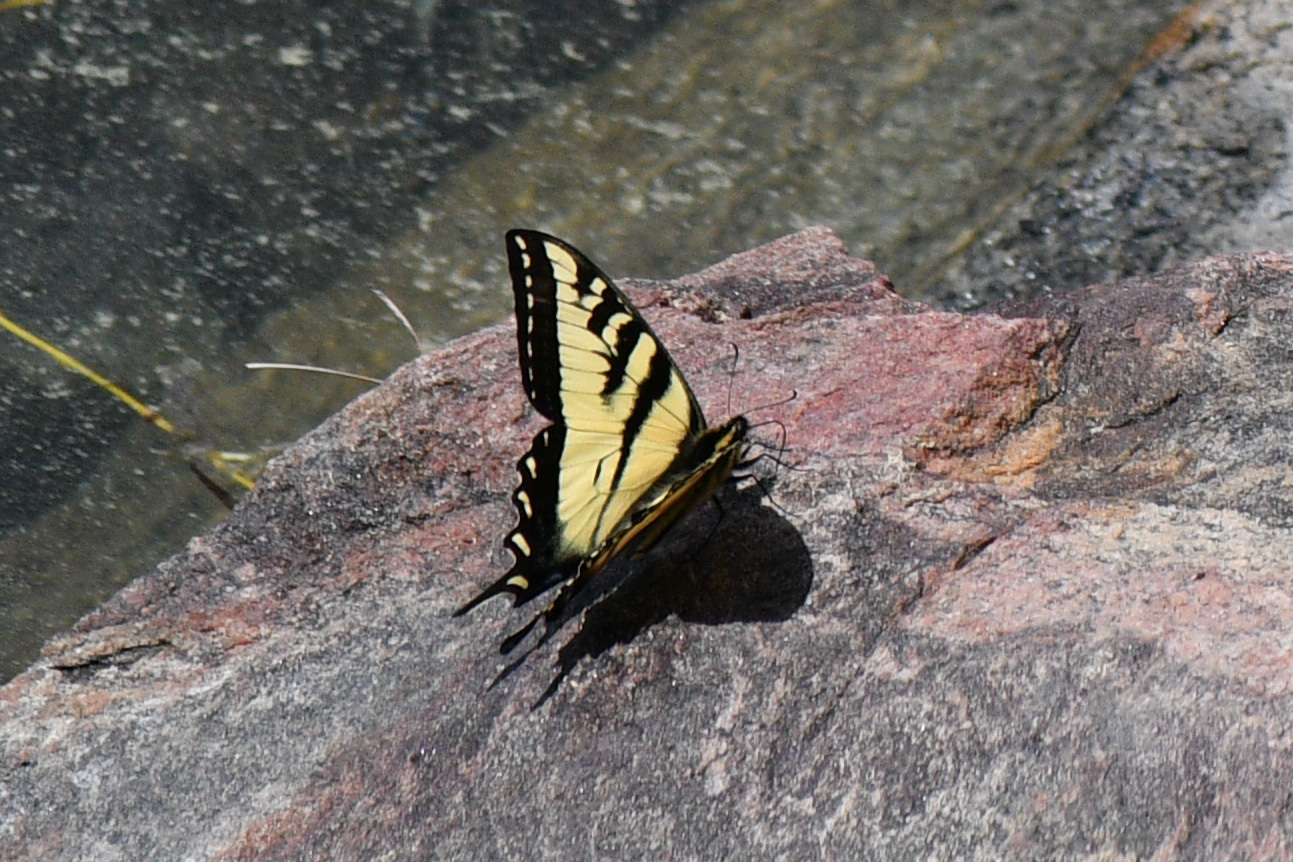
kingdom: Animalia
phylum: Arthropoda
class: Insecta
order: Lepidoptera
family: Papilionidae
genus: Papilio
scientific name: Papilio rutulus
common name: Western tiger swallowtail
